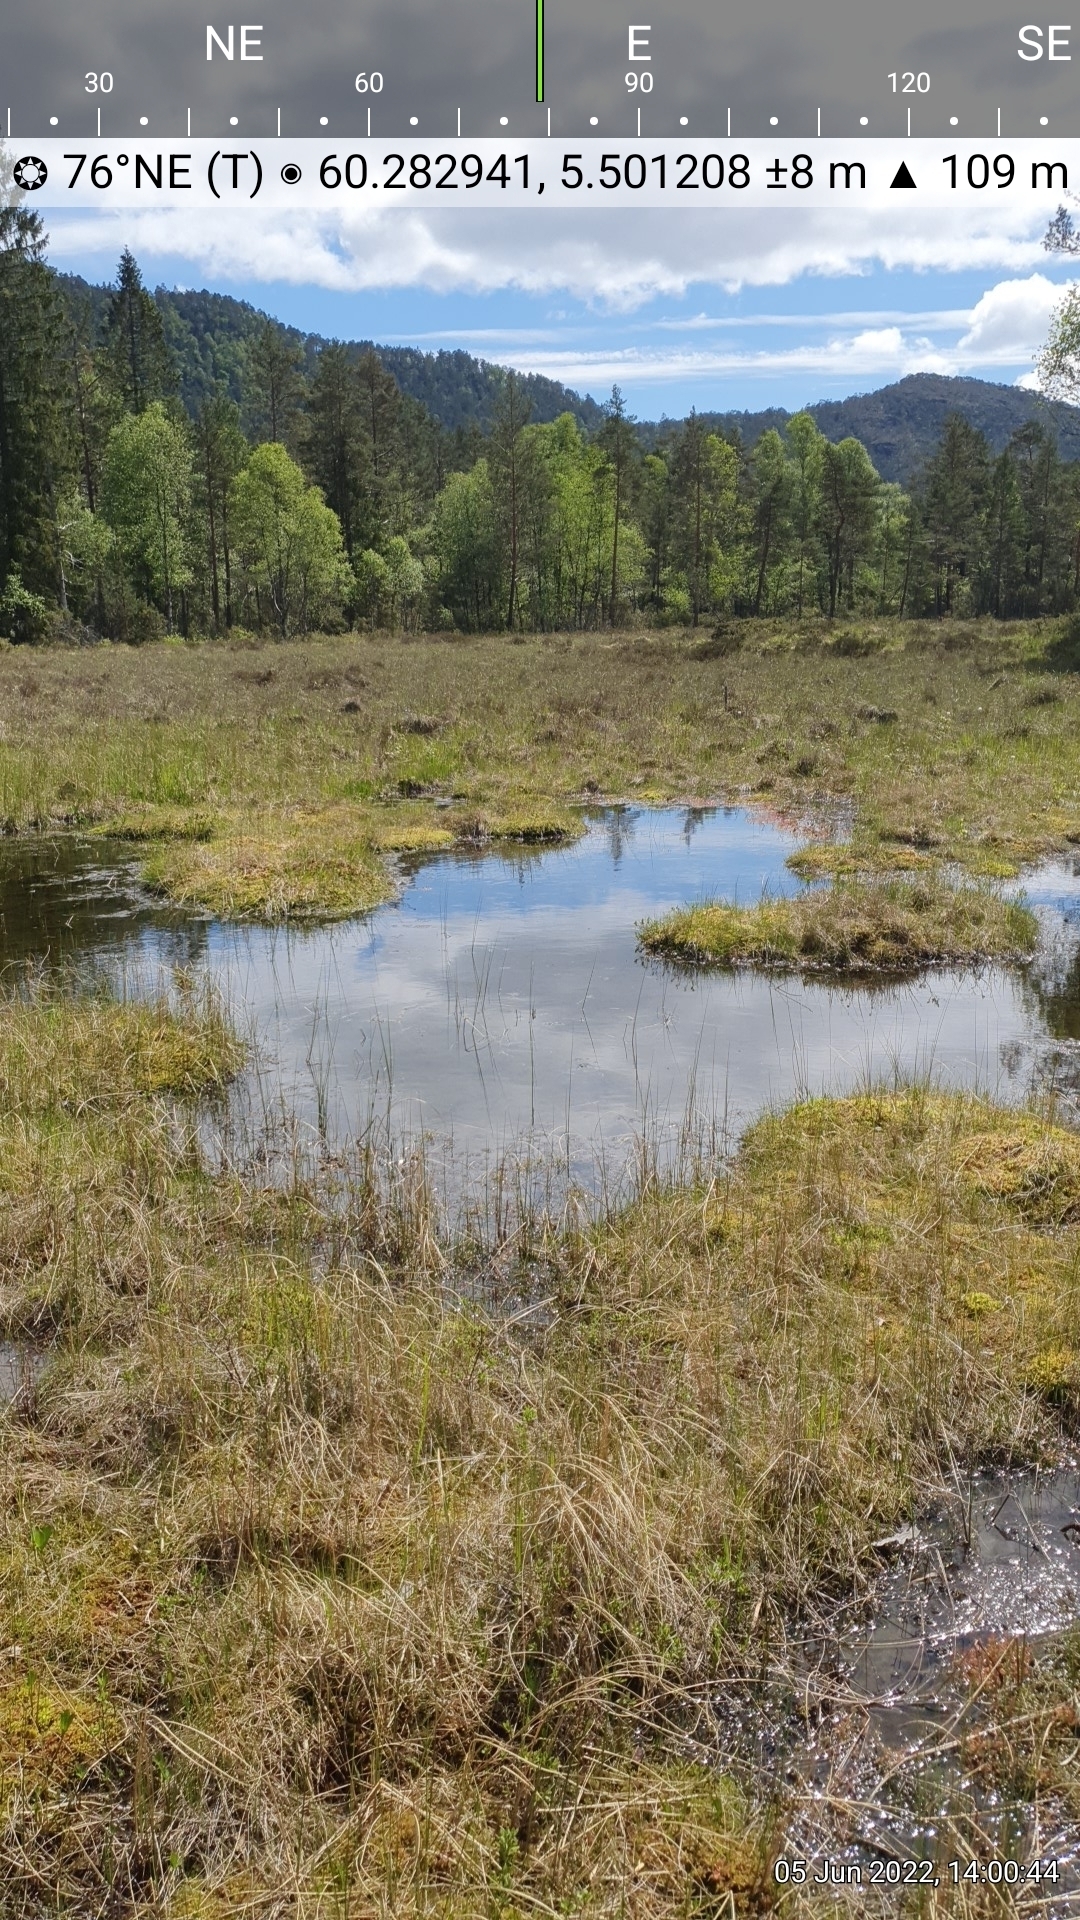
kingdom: Plantae
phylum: Tracheophyta
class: Magnoliopsida
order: Caryophyllales
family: Droseraceae
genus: Drosera
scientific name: Drosera rotundifolia
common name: Round-leaved sundew
